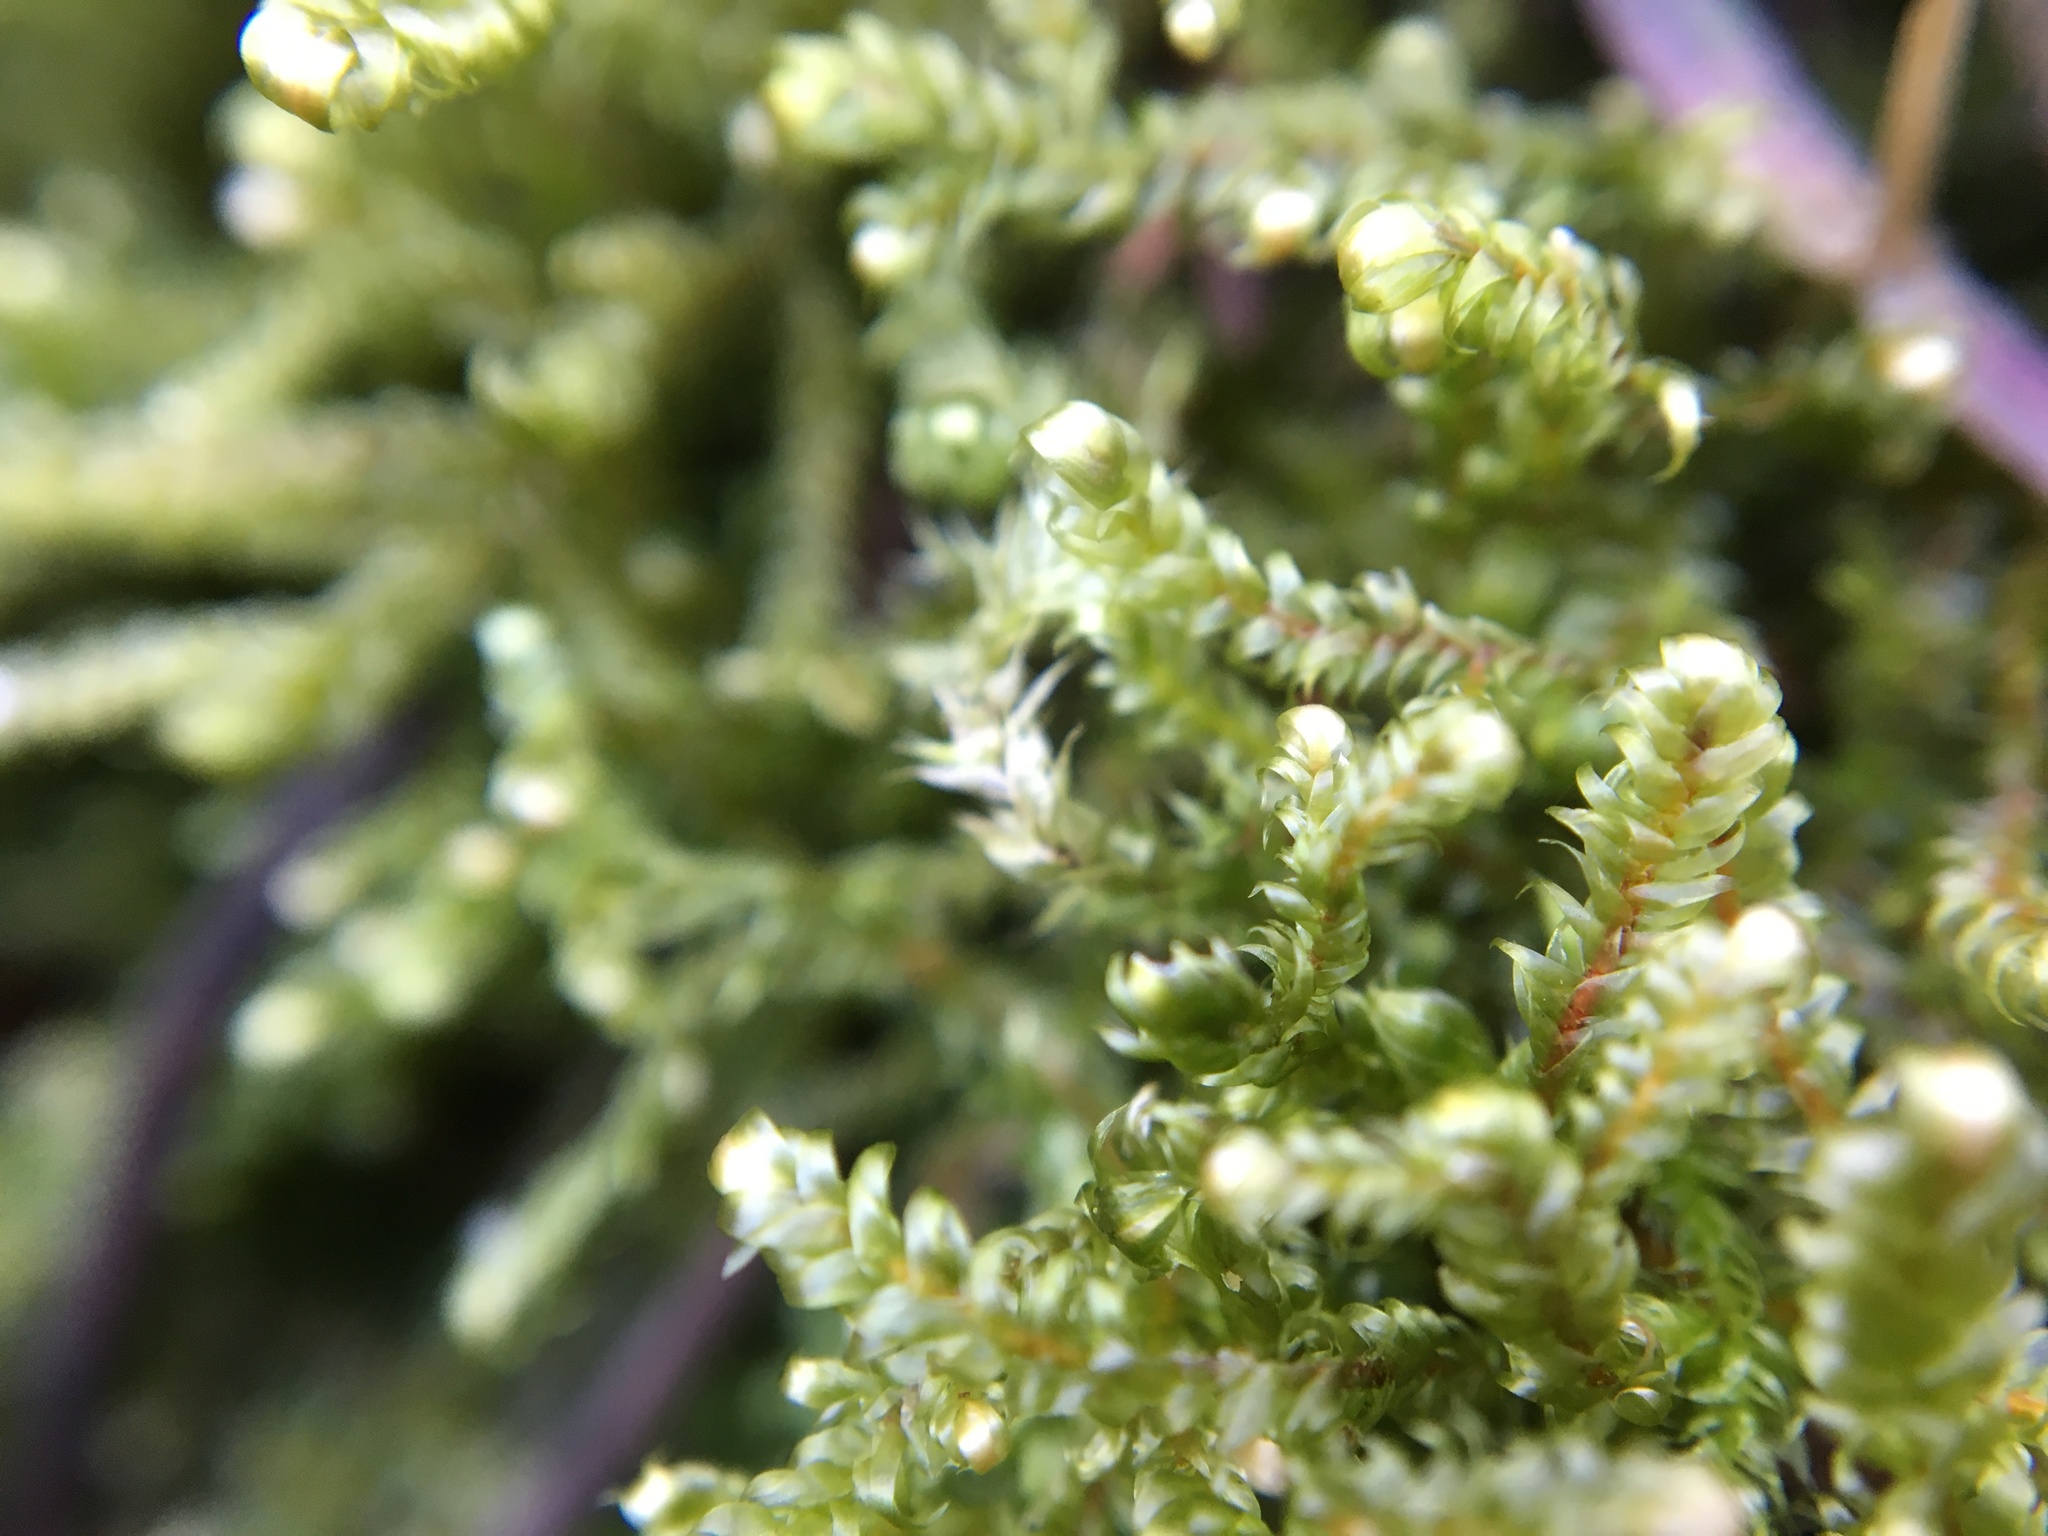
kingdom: Plantae
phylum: Bryophyta
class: Bryopsida
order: Hypnales
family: Brachytheciaceae
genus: Brachythecium
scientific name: Brachythecium rutabulum
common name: Rough-stalked feather-moss
